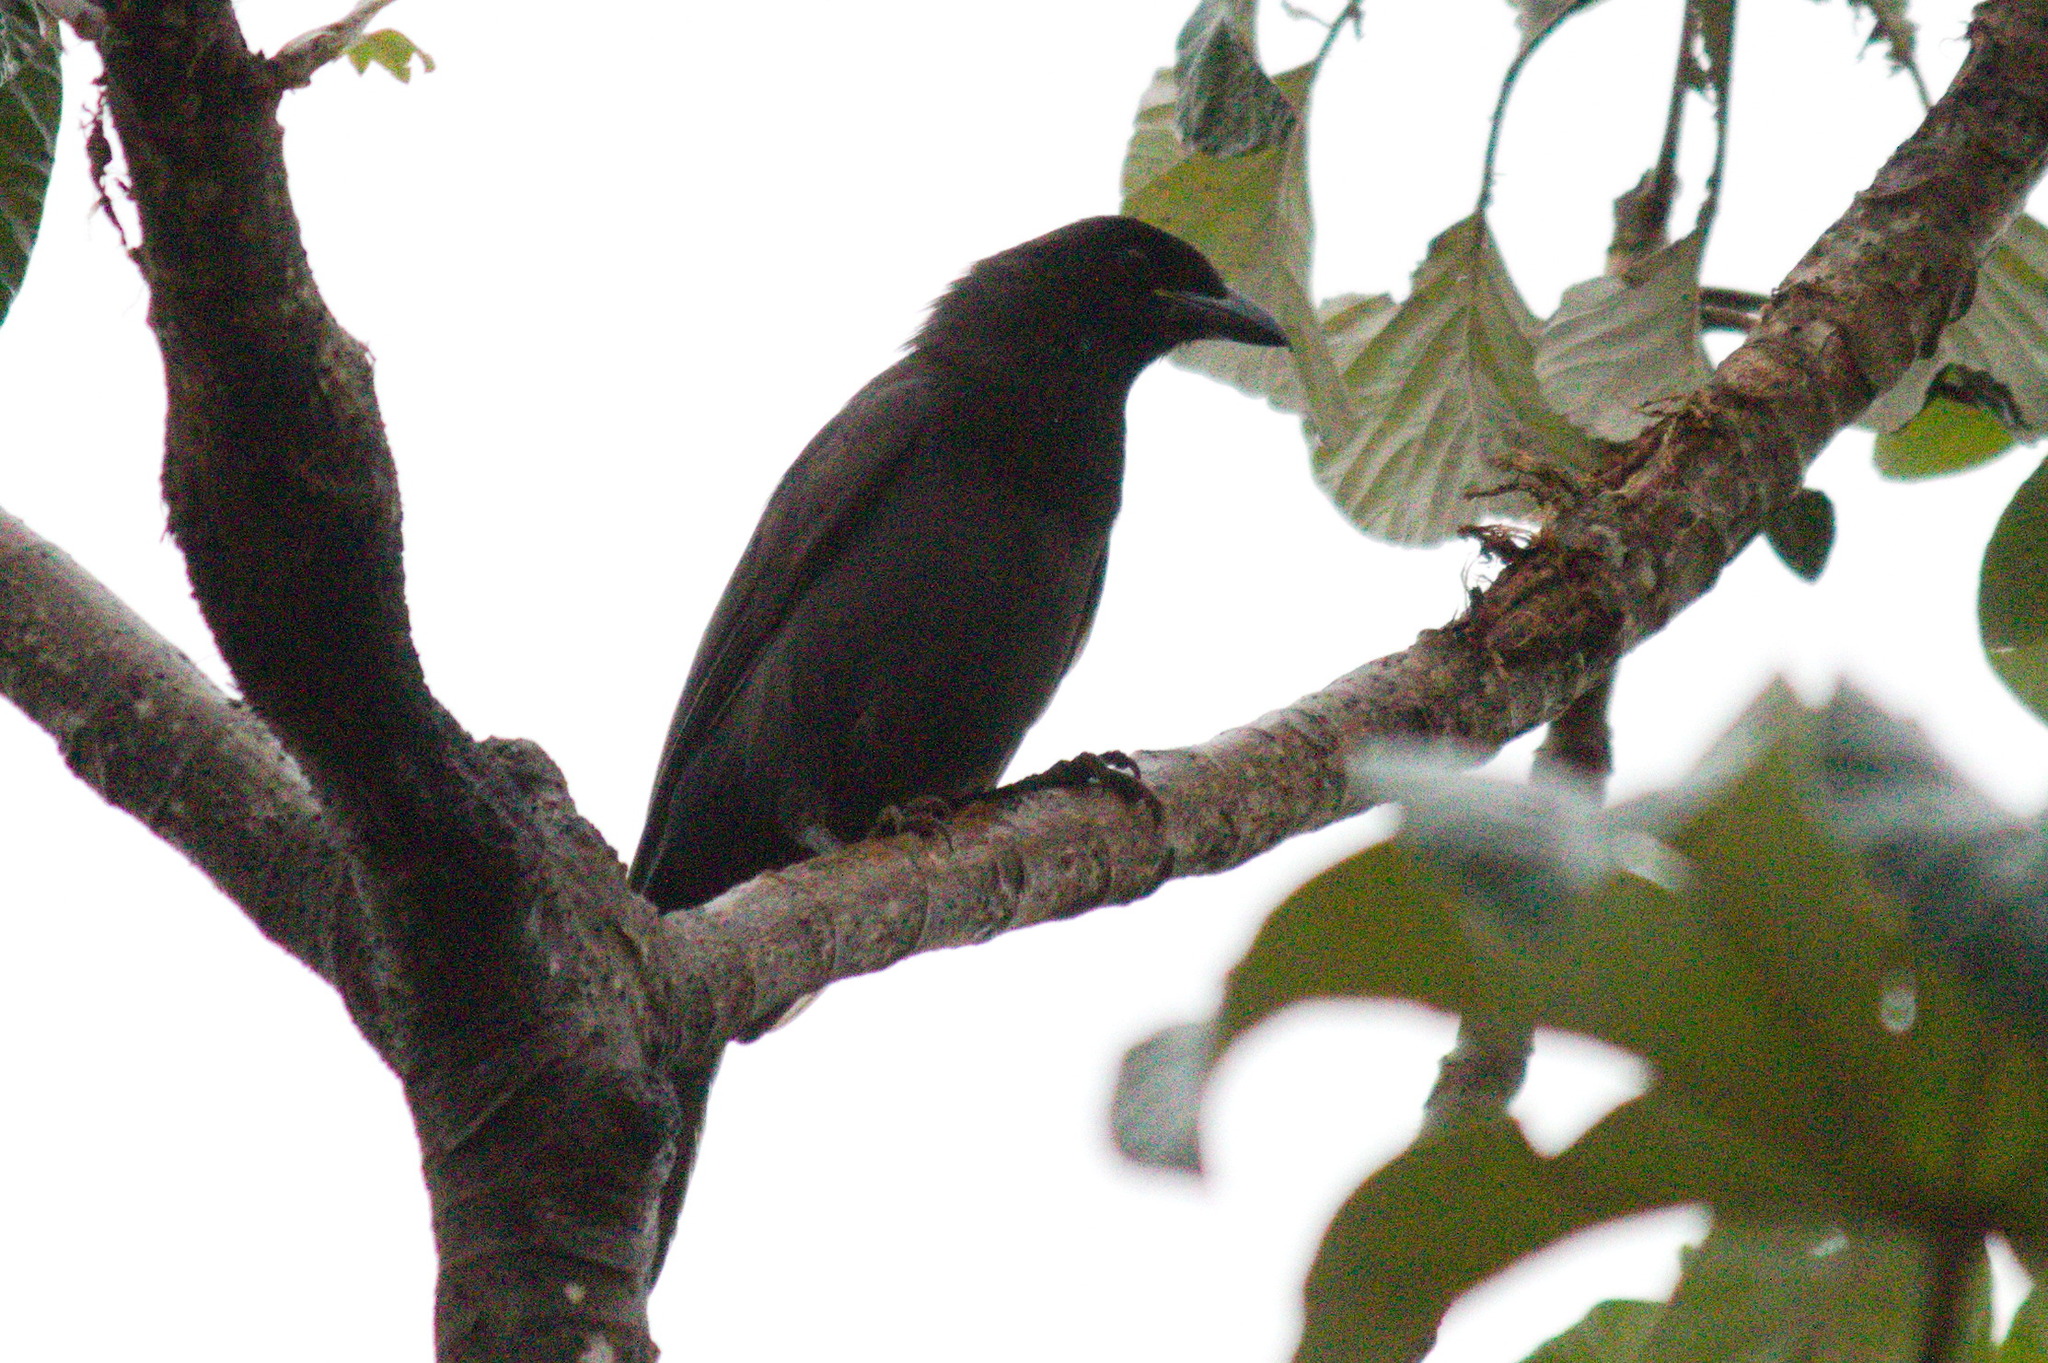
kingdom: Animalia
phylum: Chordata
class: Aves
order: Passeriformes
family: Corvidae
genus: Cyanocorax
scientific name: Cyanocorax cyanomelas
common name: Purplish jay
